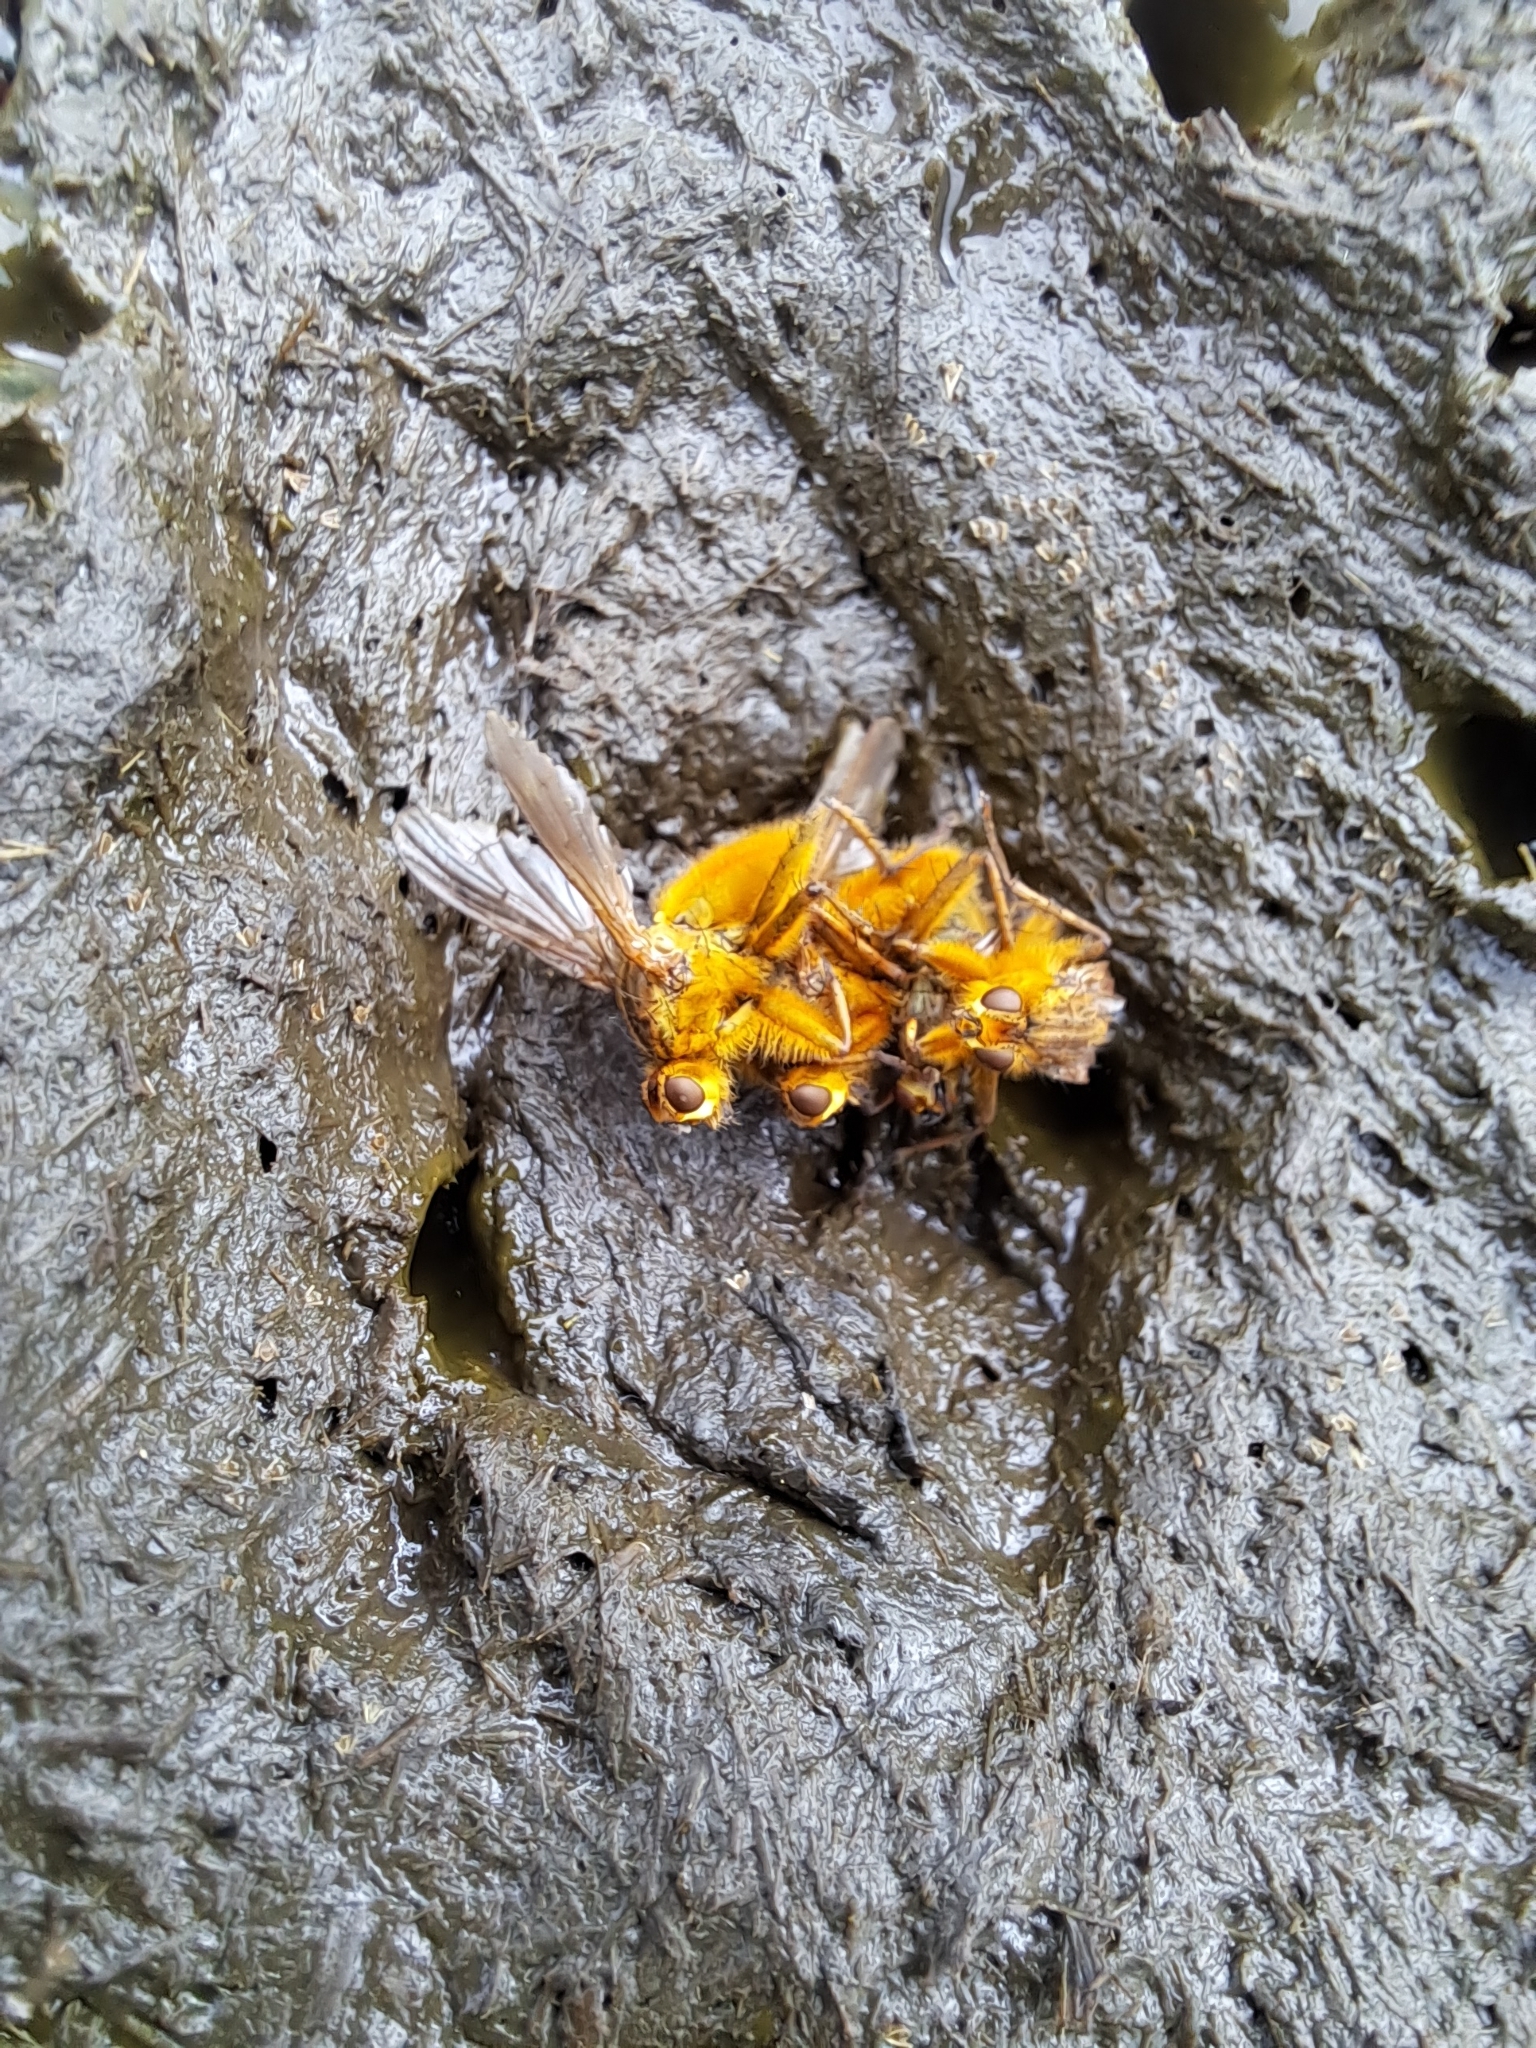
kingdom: Animalia
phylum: Arthropoda
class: Insecta
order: Diptera
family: Scathophagidae
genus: Scathophaga
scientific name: Scathophaga stercoraria
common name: Yellow dung fly
